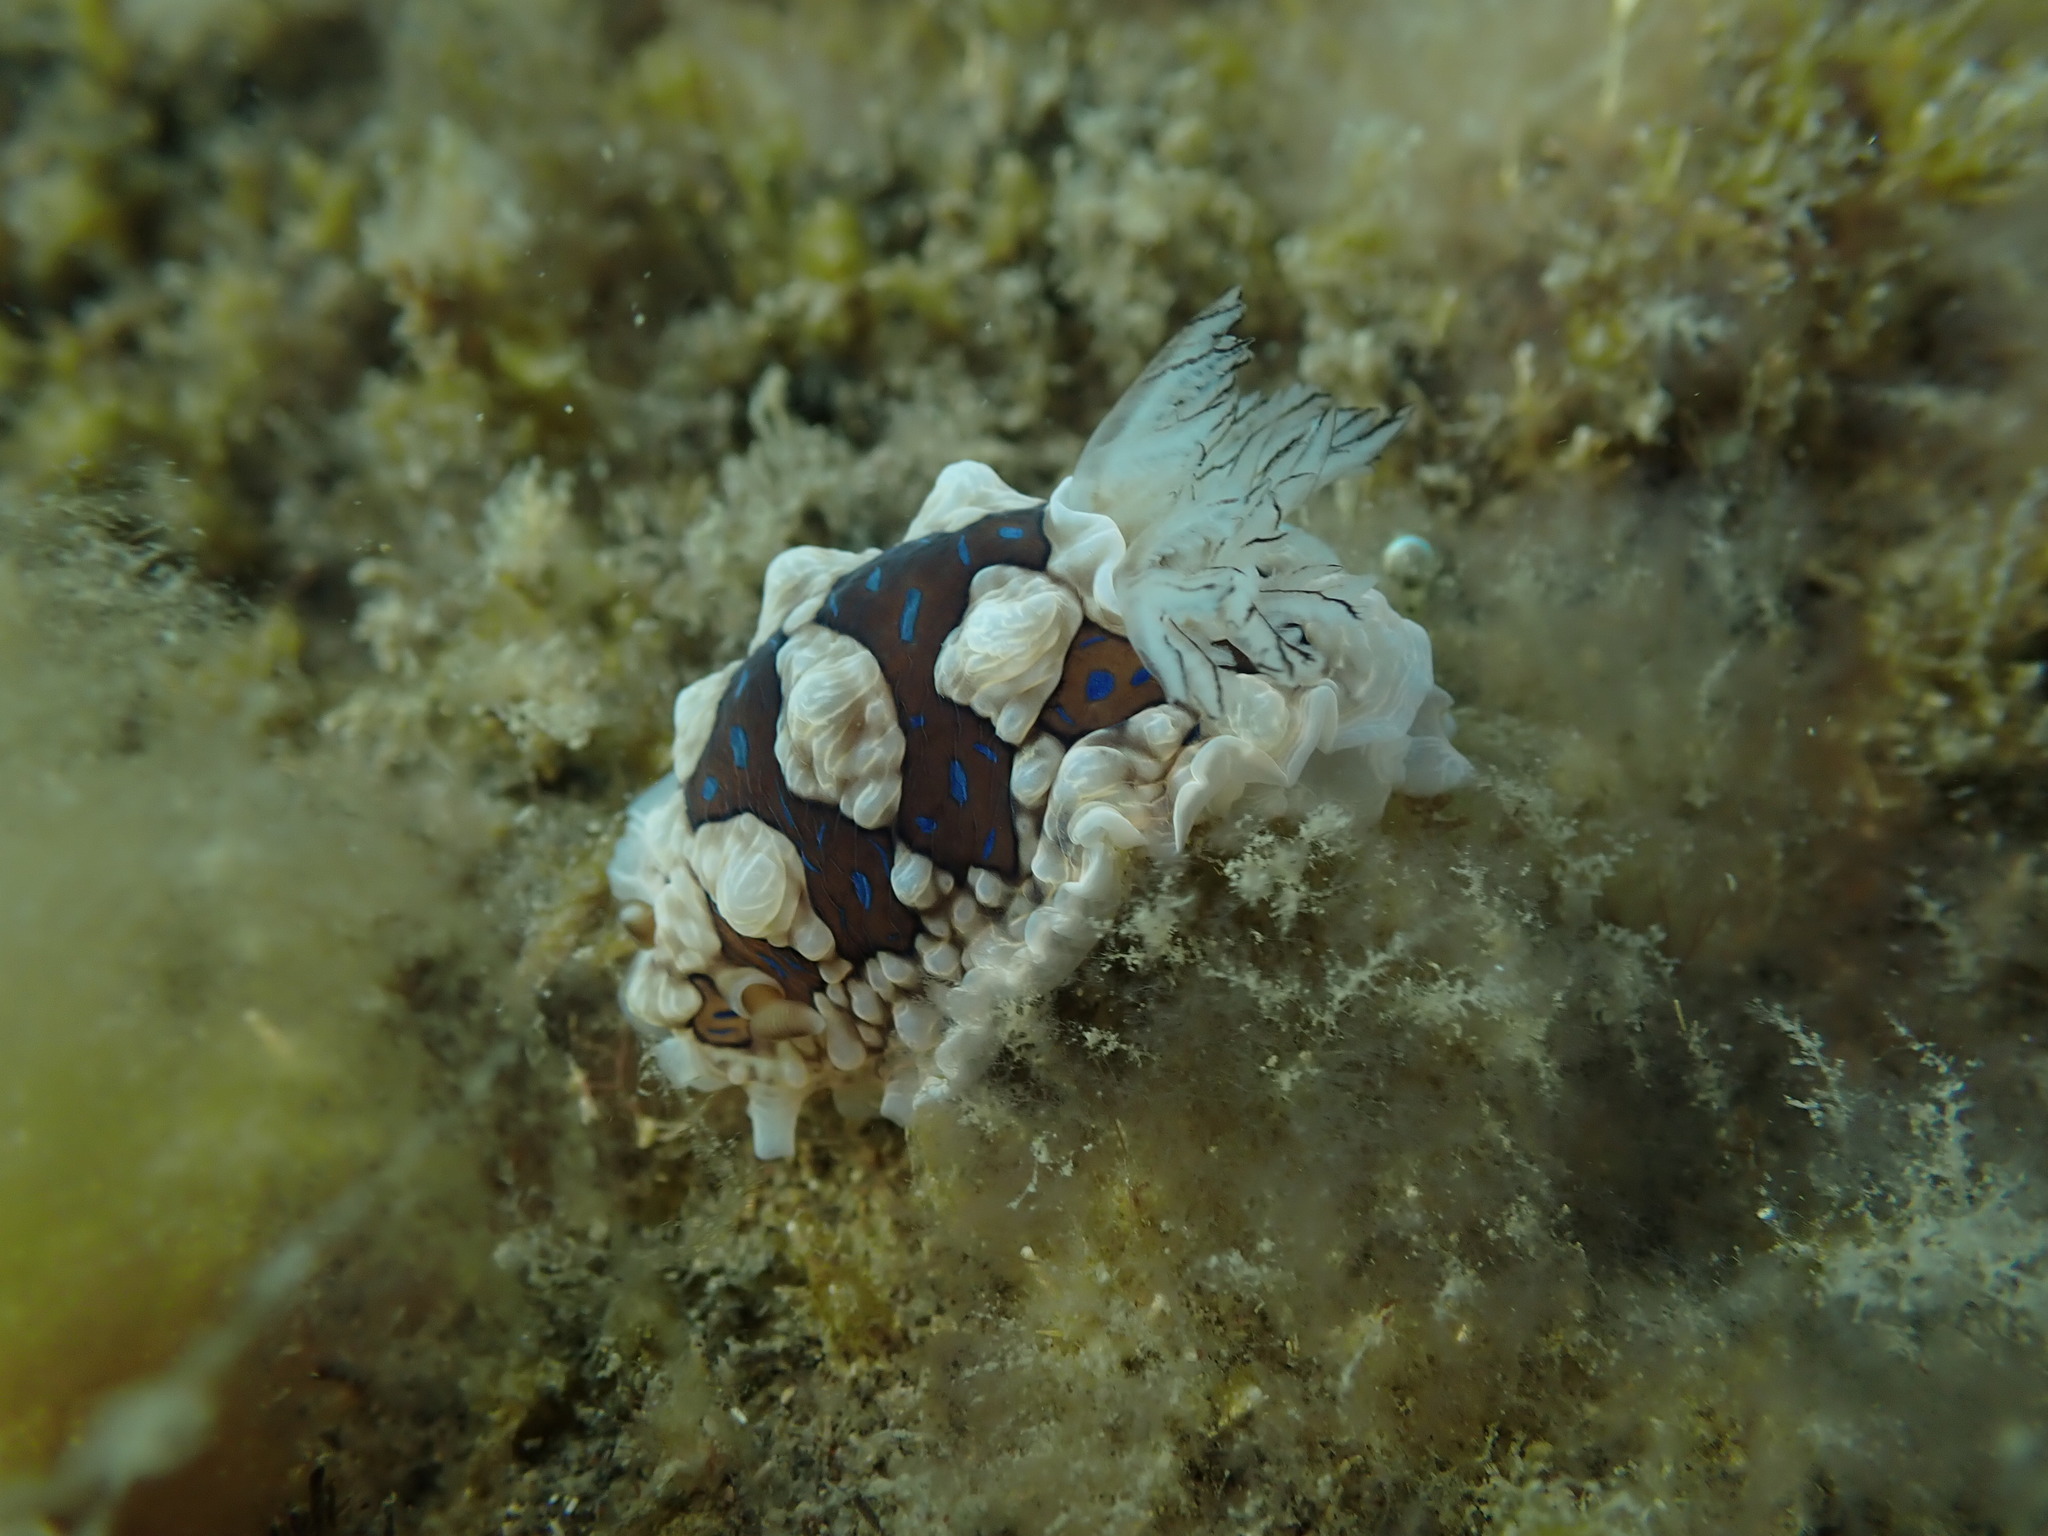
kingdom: Animalia
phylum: Mollusca
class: Gastropoda
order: Nudibranchia
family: Dendrodorididae
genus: Dendrodoris
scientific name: Dendrodoris krusensternii
